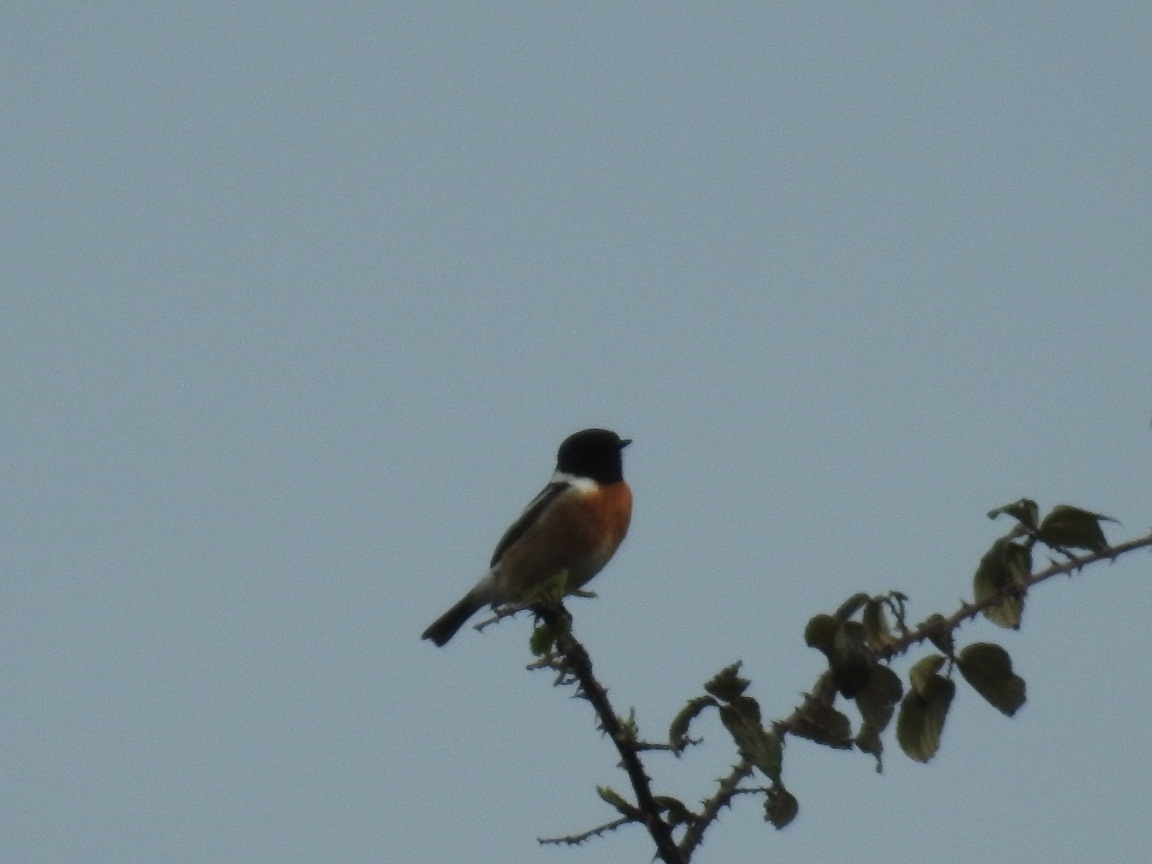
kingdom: Animalia
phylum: Chordata
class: Aves
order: Passeriformes
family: Muscicapidae
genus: Saxicola
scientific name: Saxicola rubicola
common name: European stonechat
